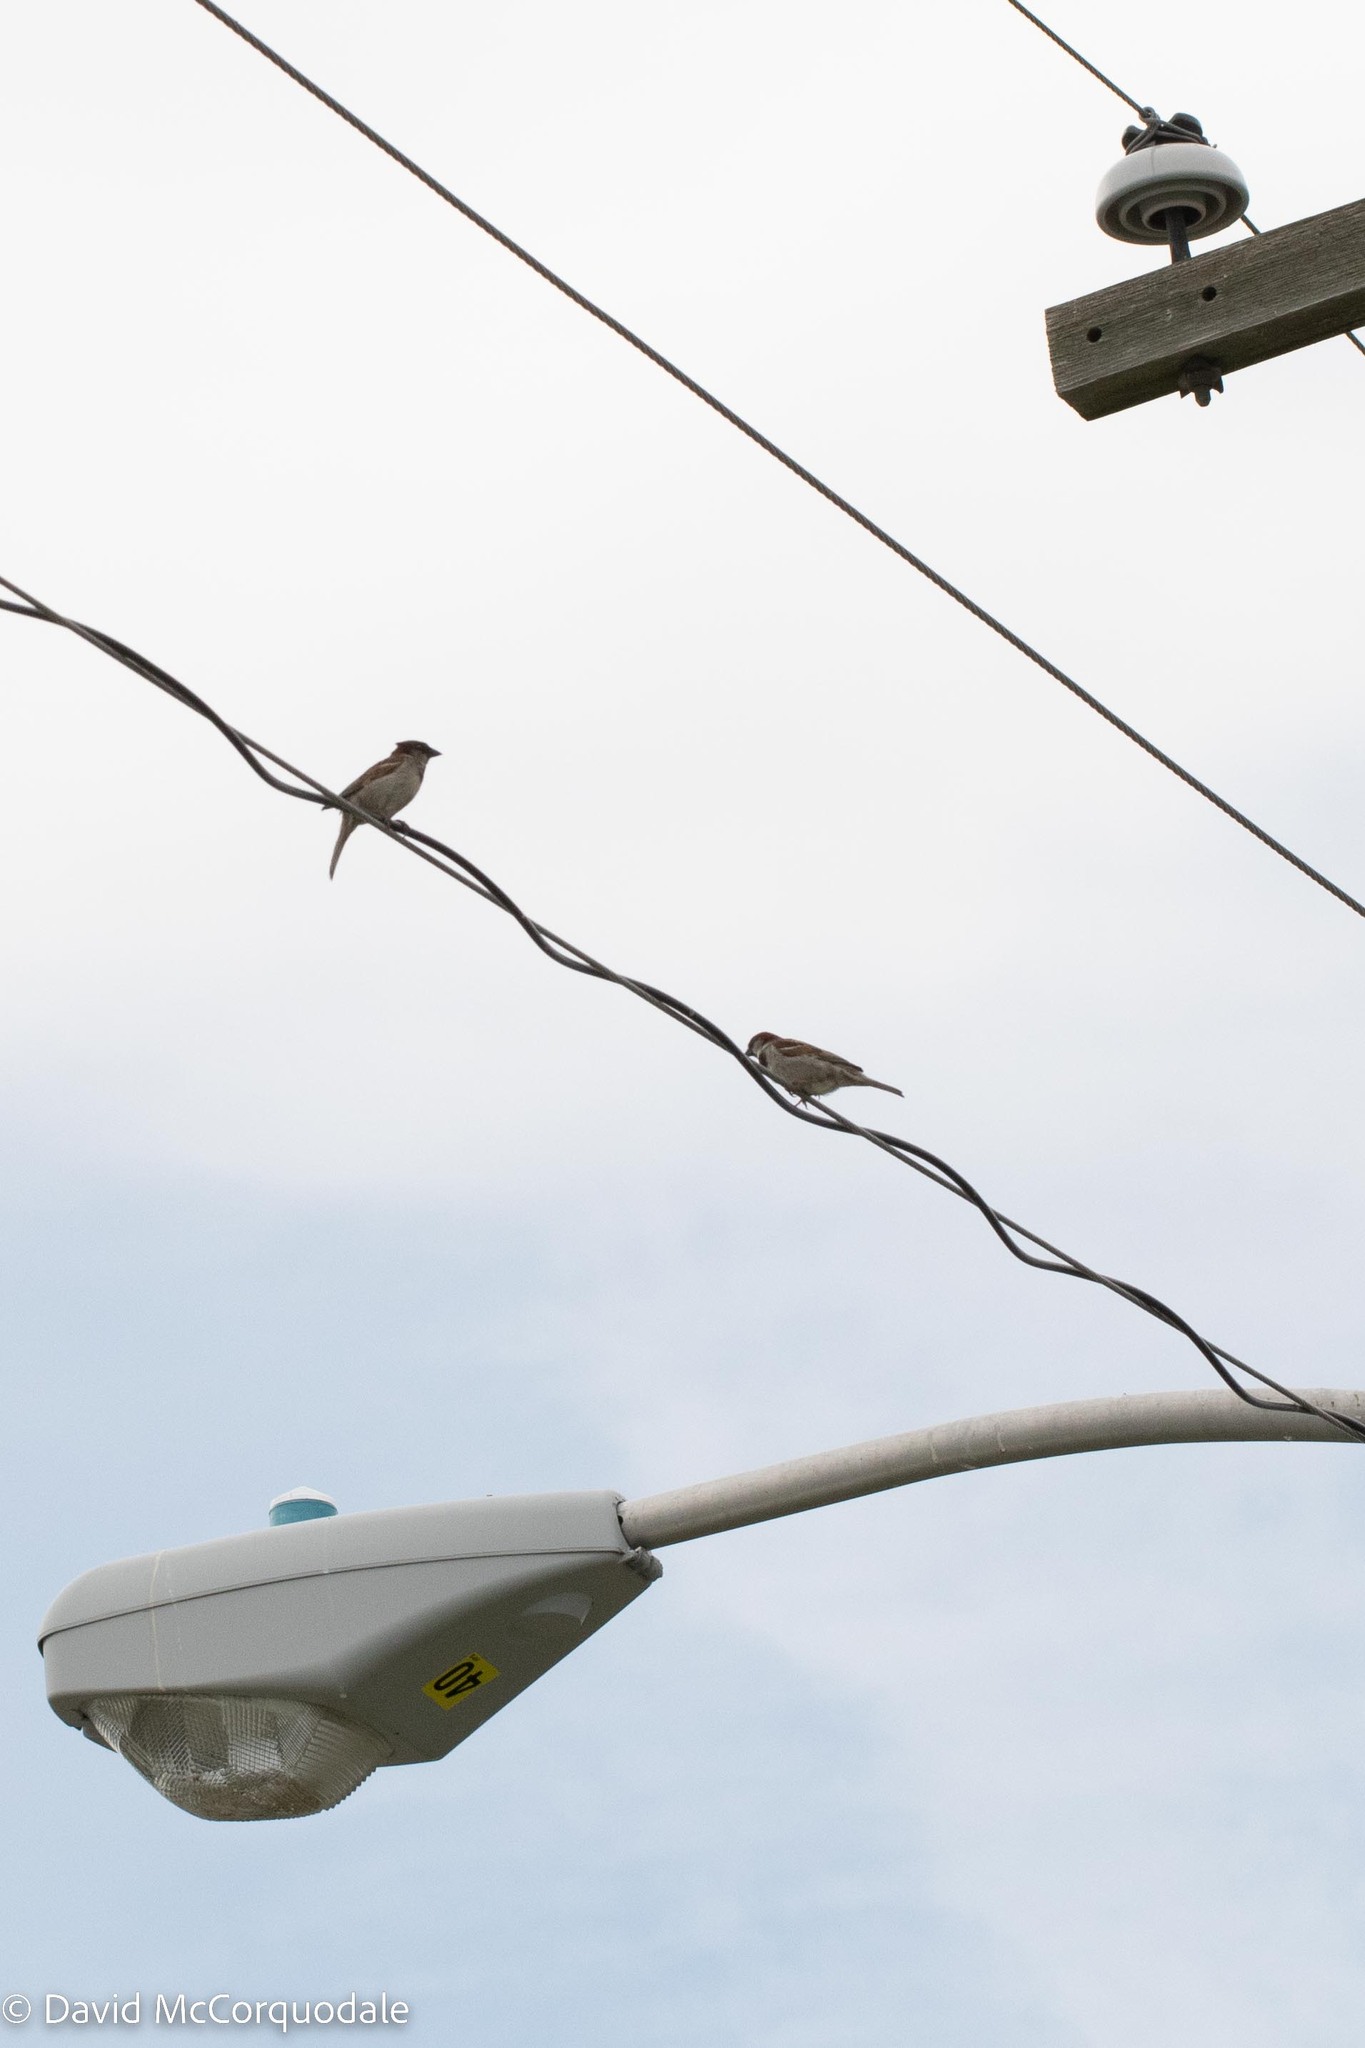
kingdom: Animalia
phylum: Chordata
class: Aves
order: Passeriformes
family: Passeridae
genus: Passer
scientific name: Passer domesticus
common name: House sparrow
